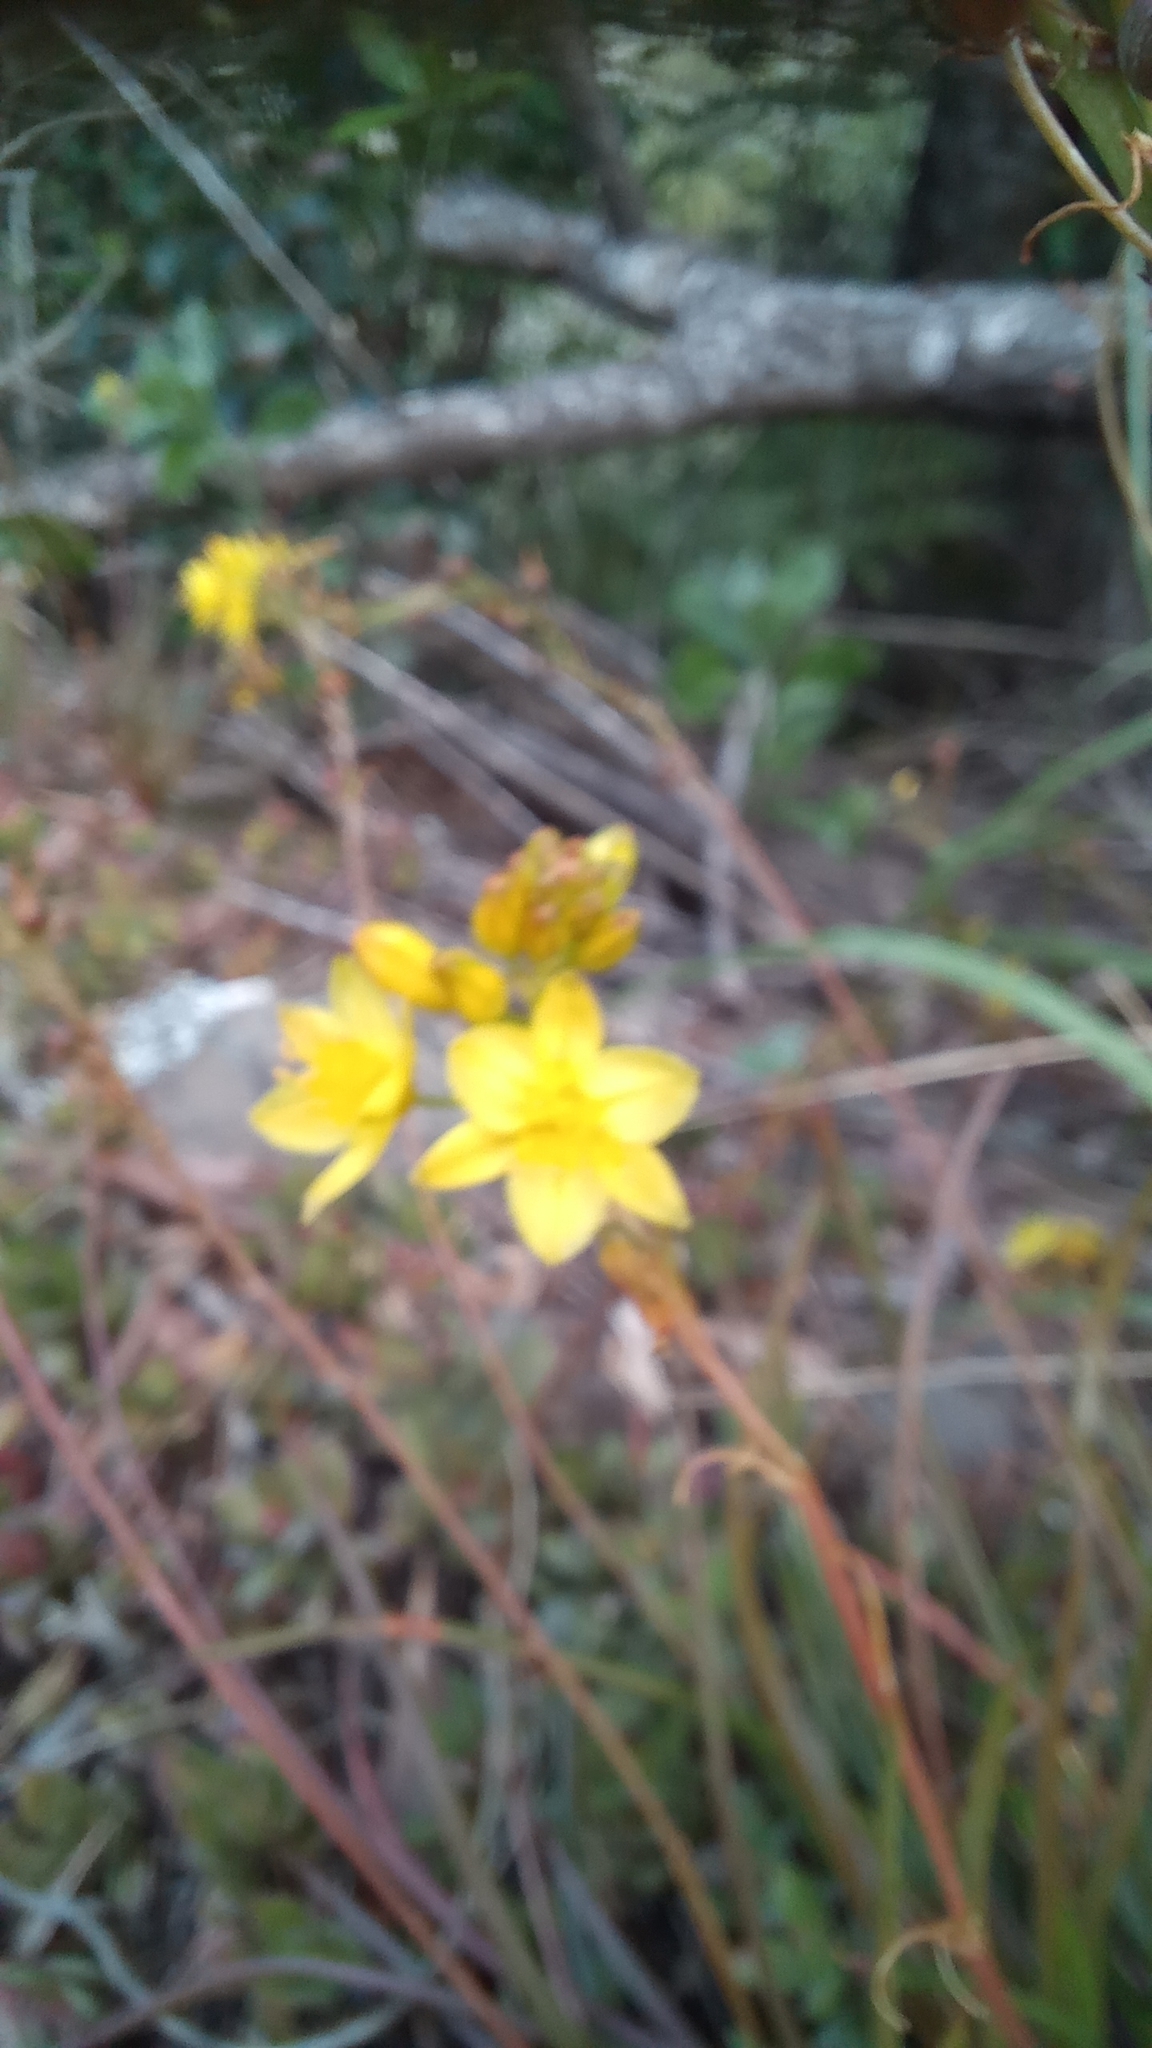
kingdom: Plantae
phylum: Tracheophyta
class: Liliopsida
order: Asparagales
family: Asphodelaceae
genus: Bulbine
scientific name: Bulbine audreyae
